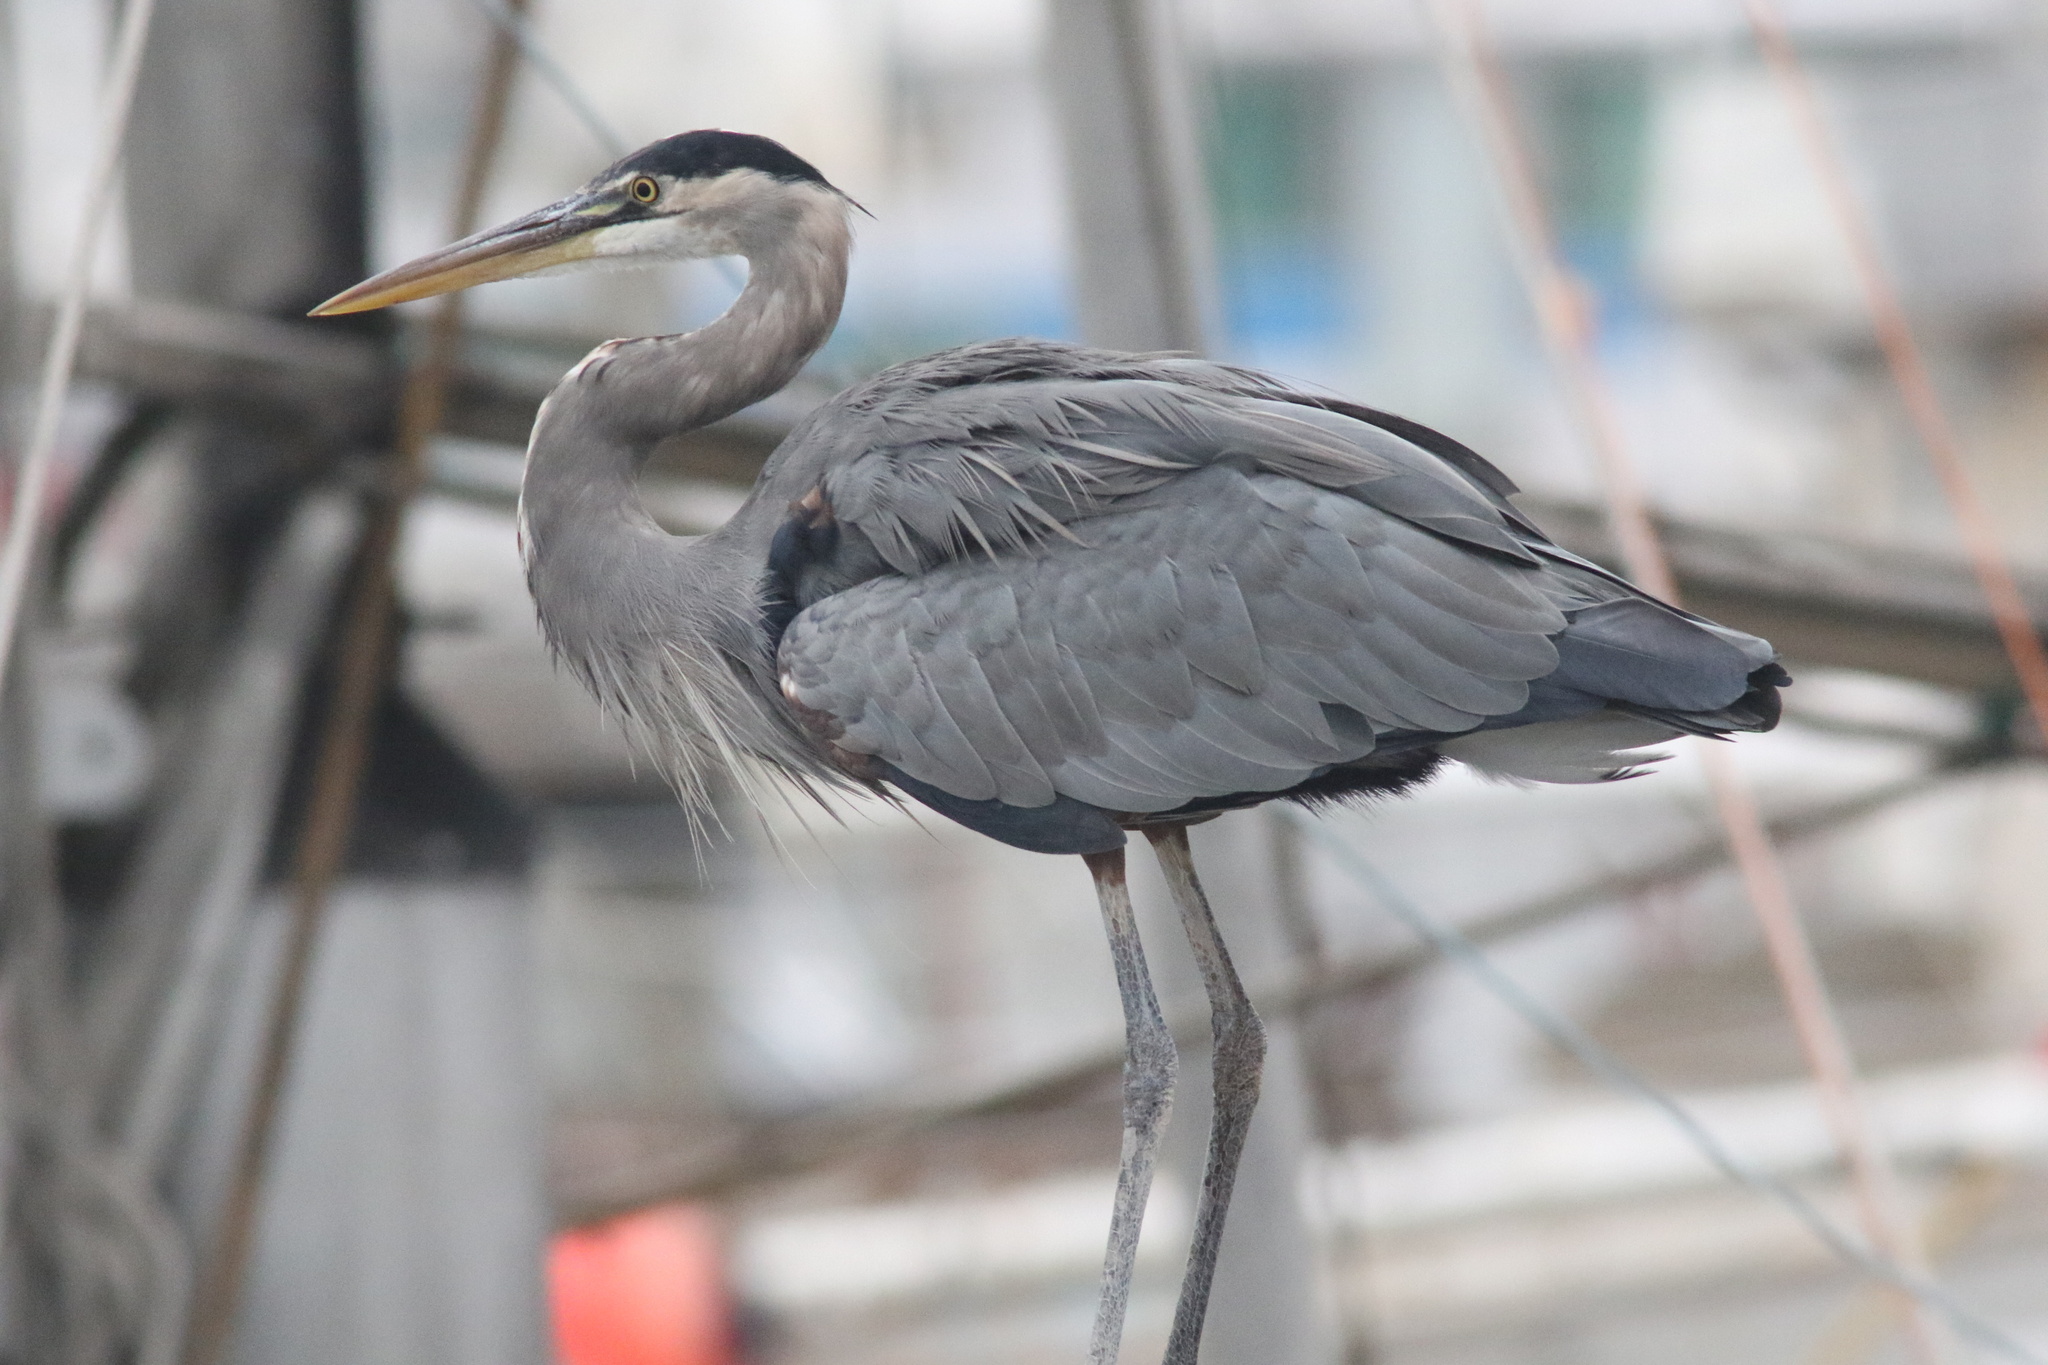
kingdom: Animalia
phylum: Chordata
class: Aves
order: Pelecaniformes
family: Ardeidae
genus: Ardea
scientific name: Ardea herodias
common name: Great blue heron
